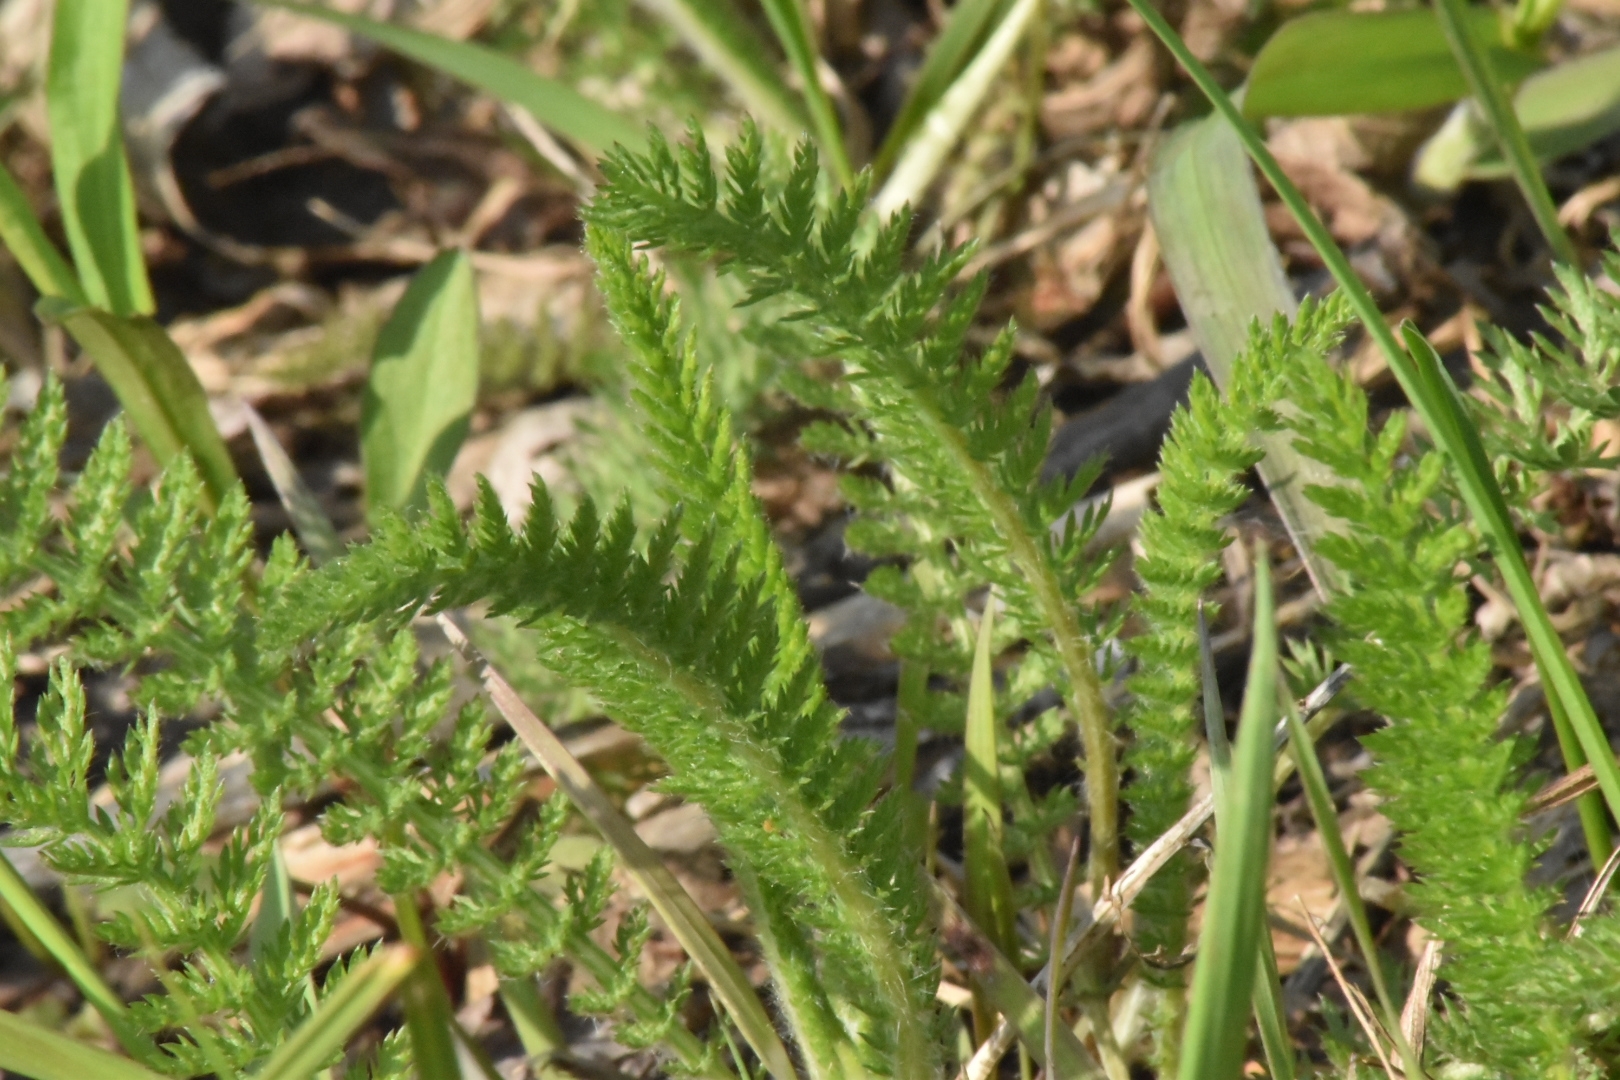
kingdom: Plantae
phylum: Tracheophyta
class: Magnoliopsida
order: Asterales
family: Asteraceae
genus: Achillea
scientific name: Achillea millefolium
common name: Yarrow
